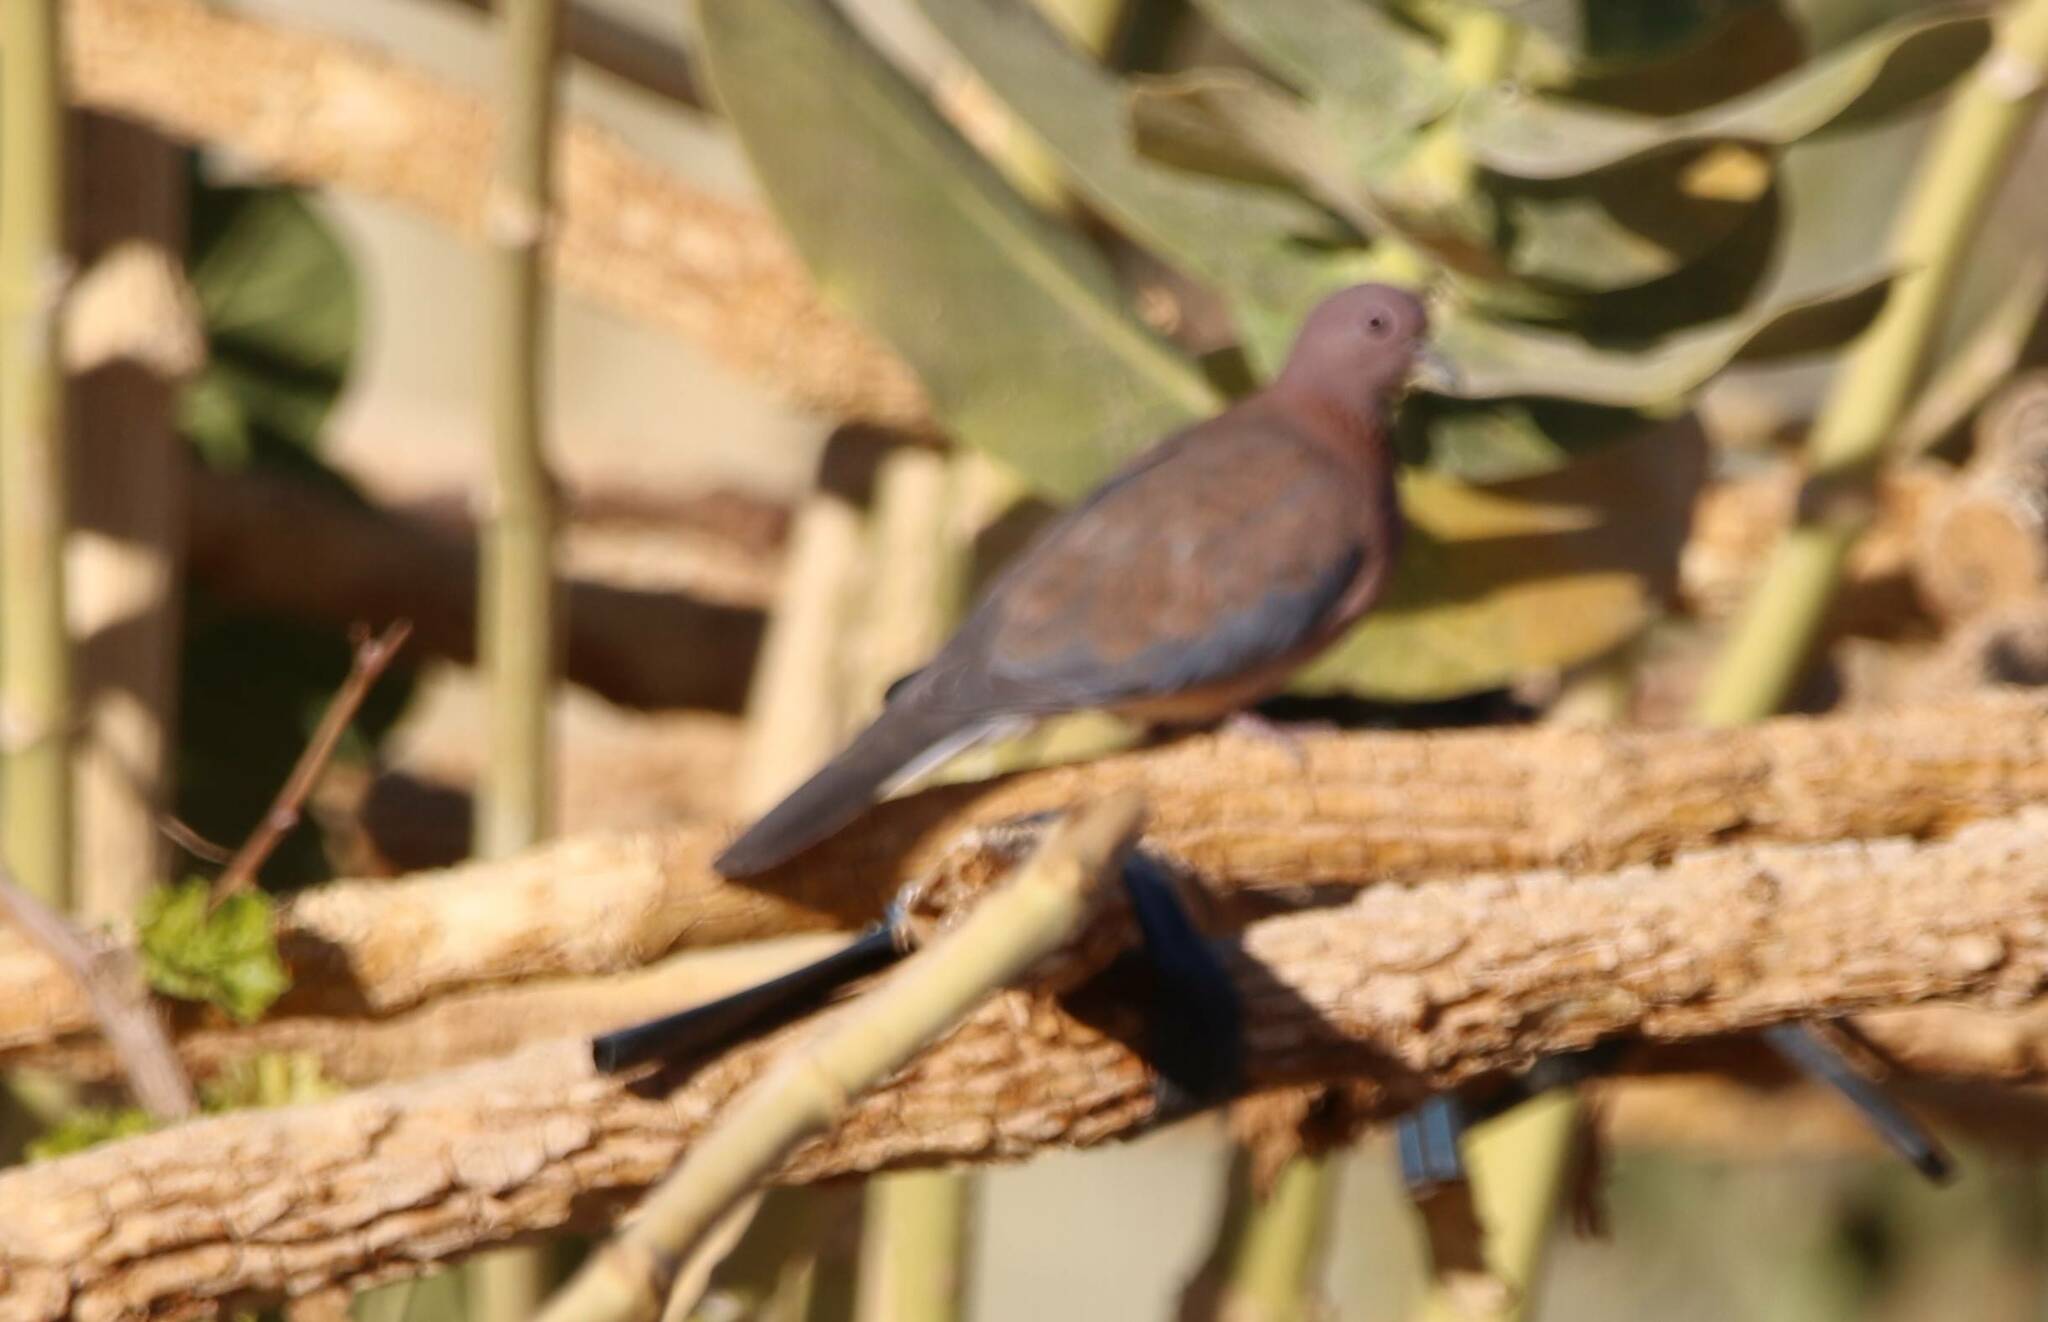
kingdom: Animalia
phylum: Chordata
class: Aves
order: Columbiformes
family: Columbidae
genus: Spilopelia
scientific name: Spilopelia senegalensis
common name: Laughing dove
